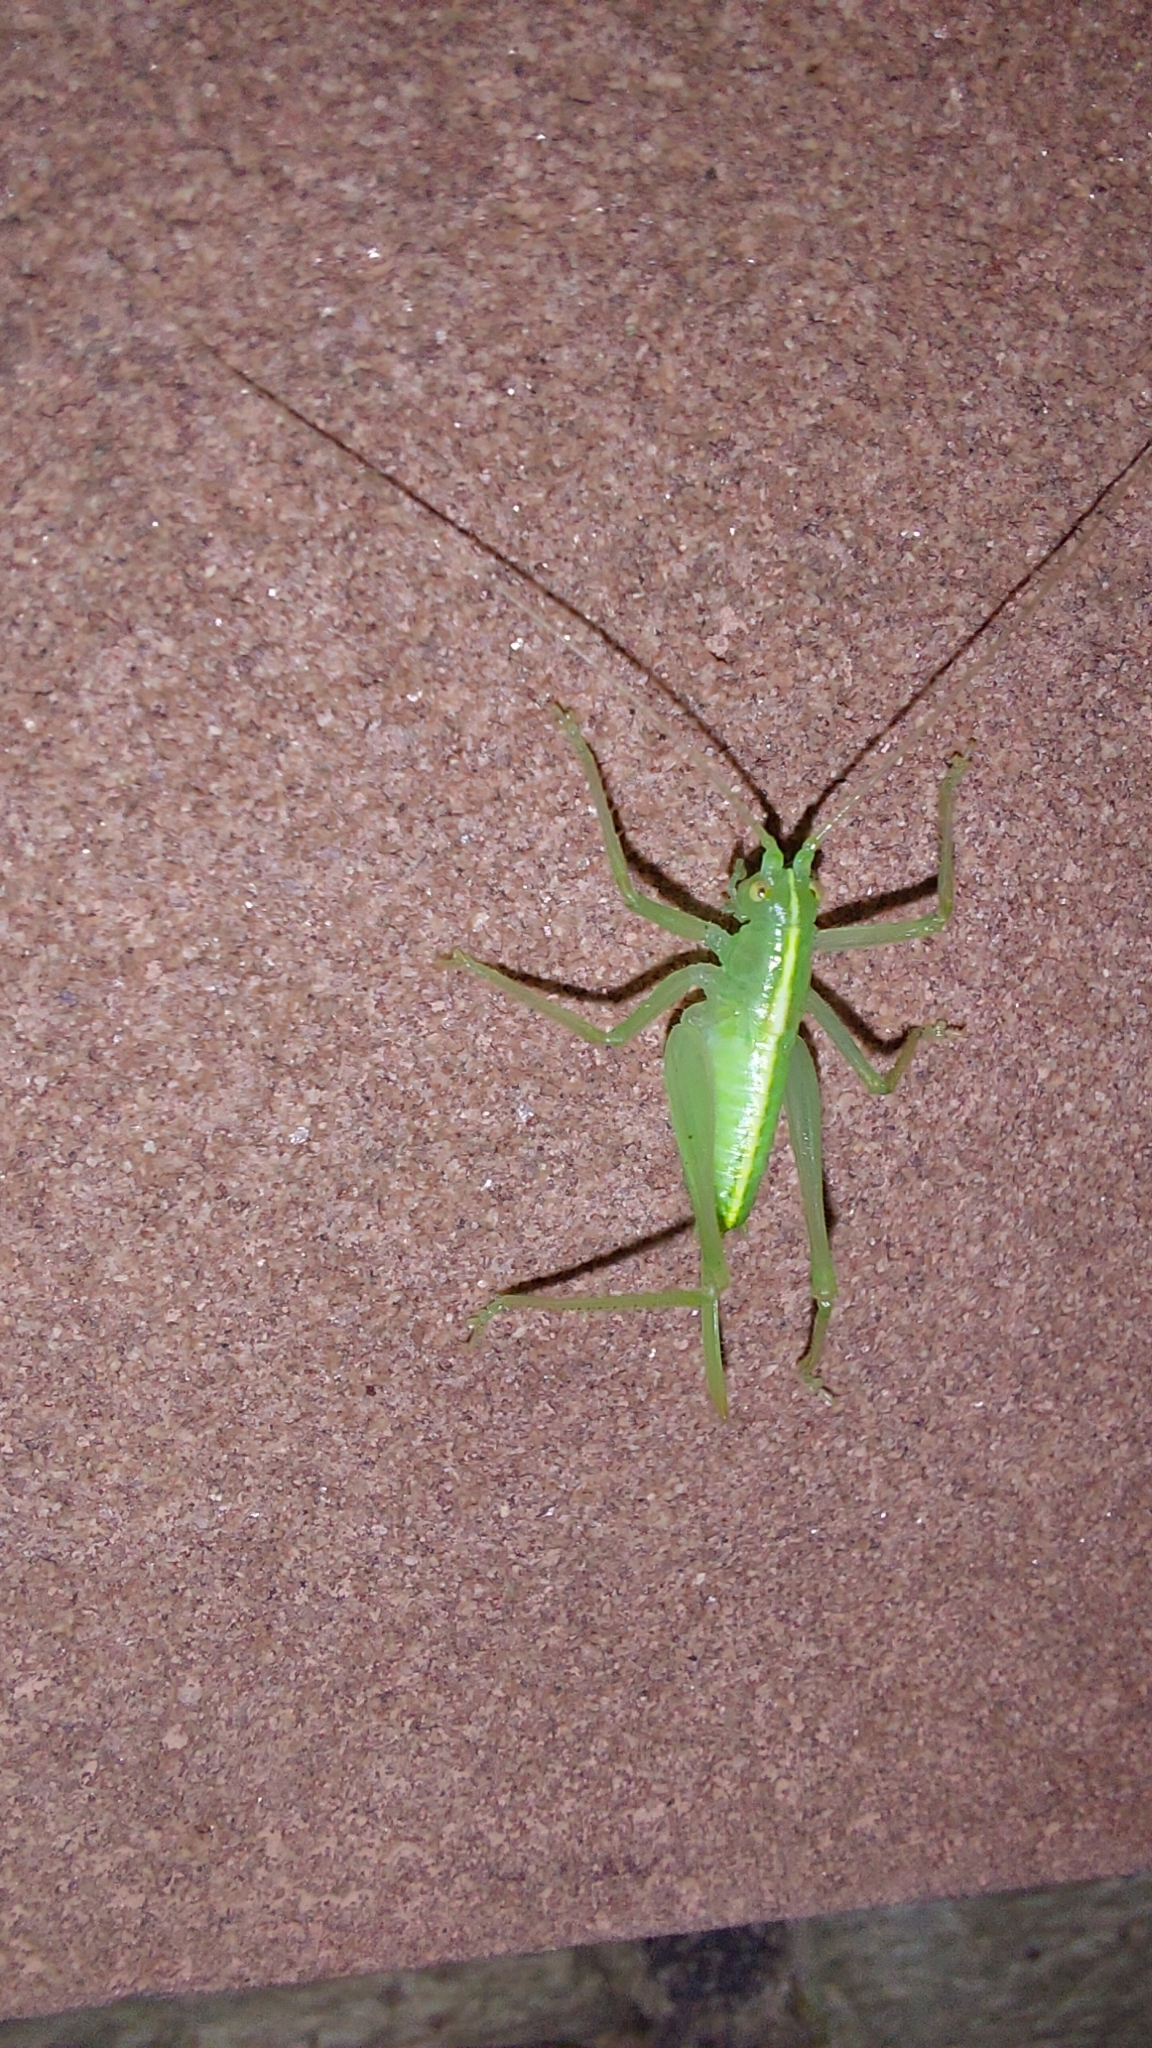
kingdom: Animalia
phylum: Arthropoda
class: Insecta
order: Orthoptera
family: Tettigoniidae
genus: Meconema
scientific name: Meconema meridionale
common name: Southern oak bush-cricket
